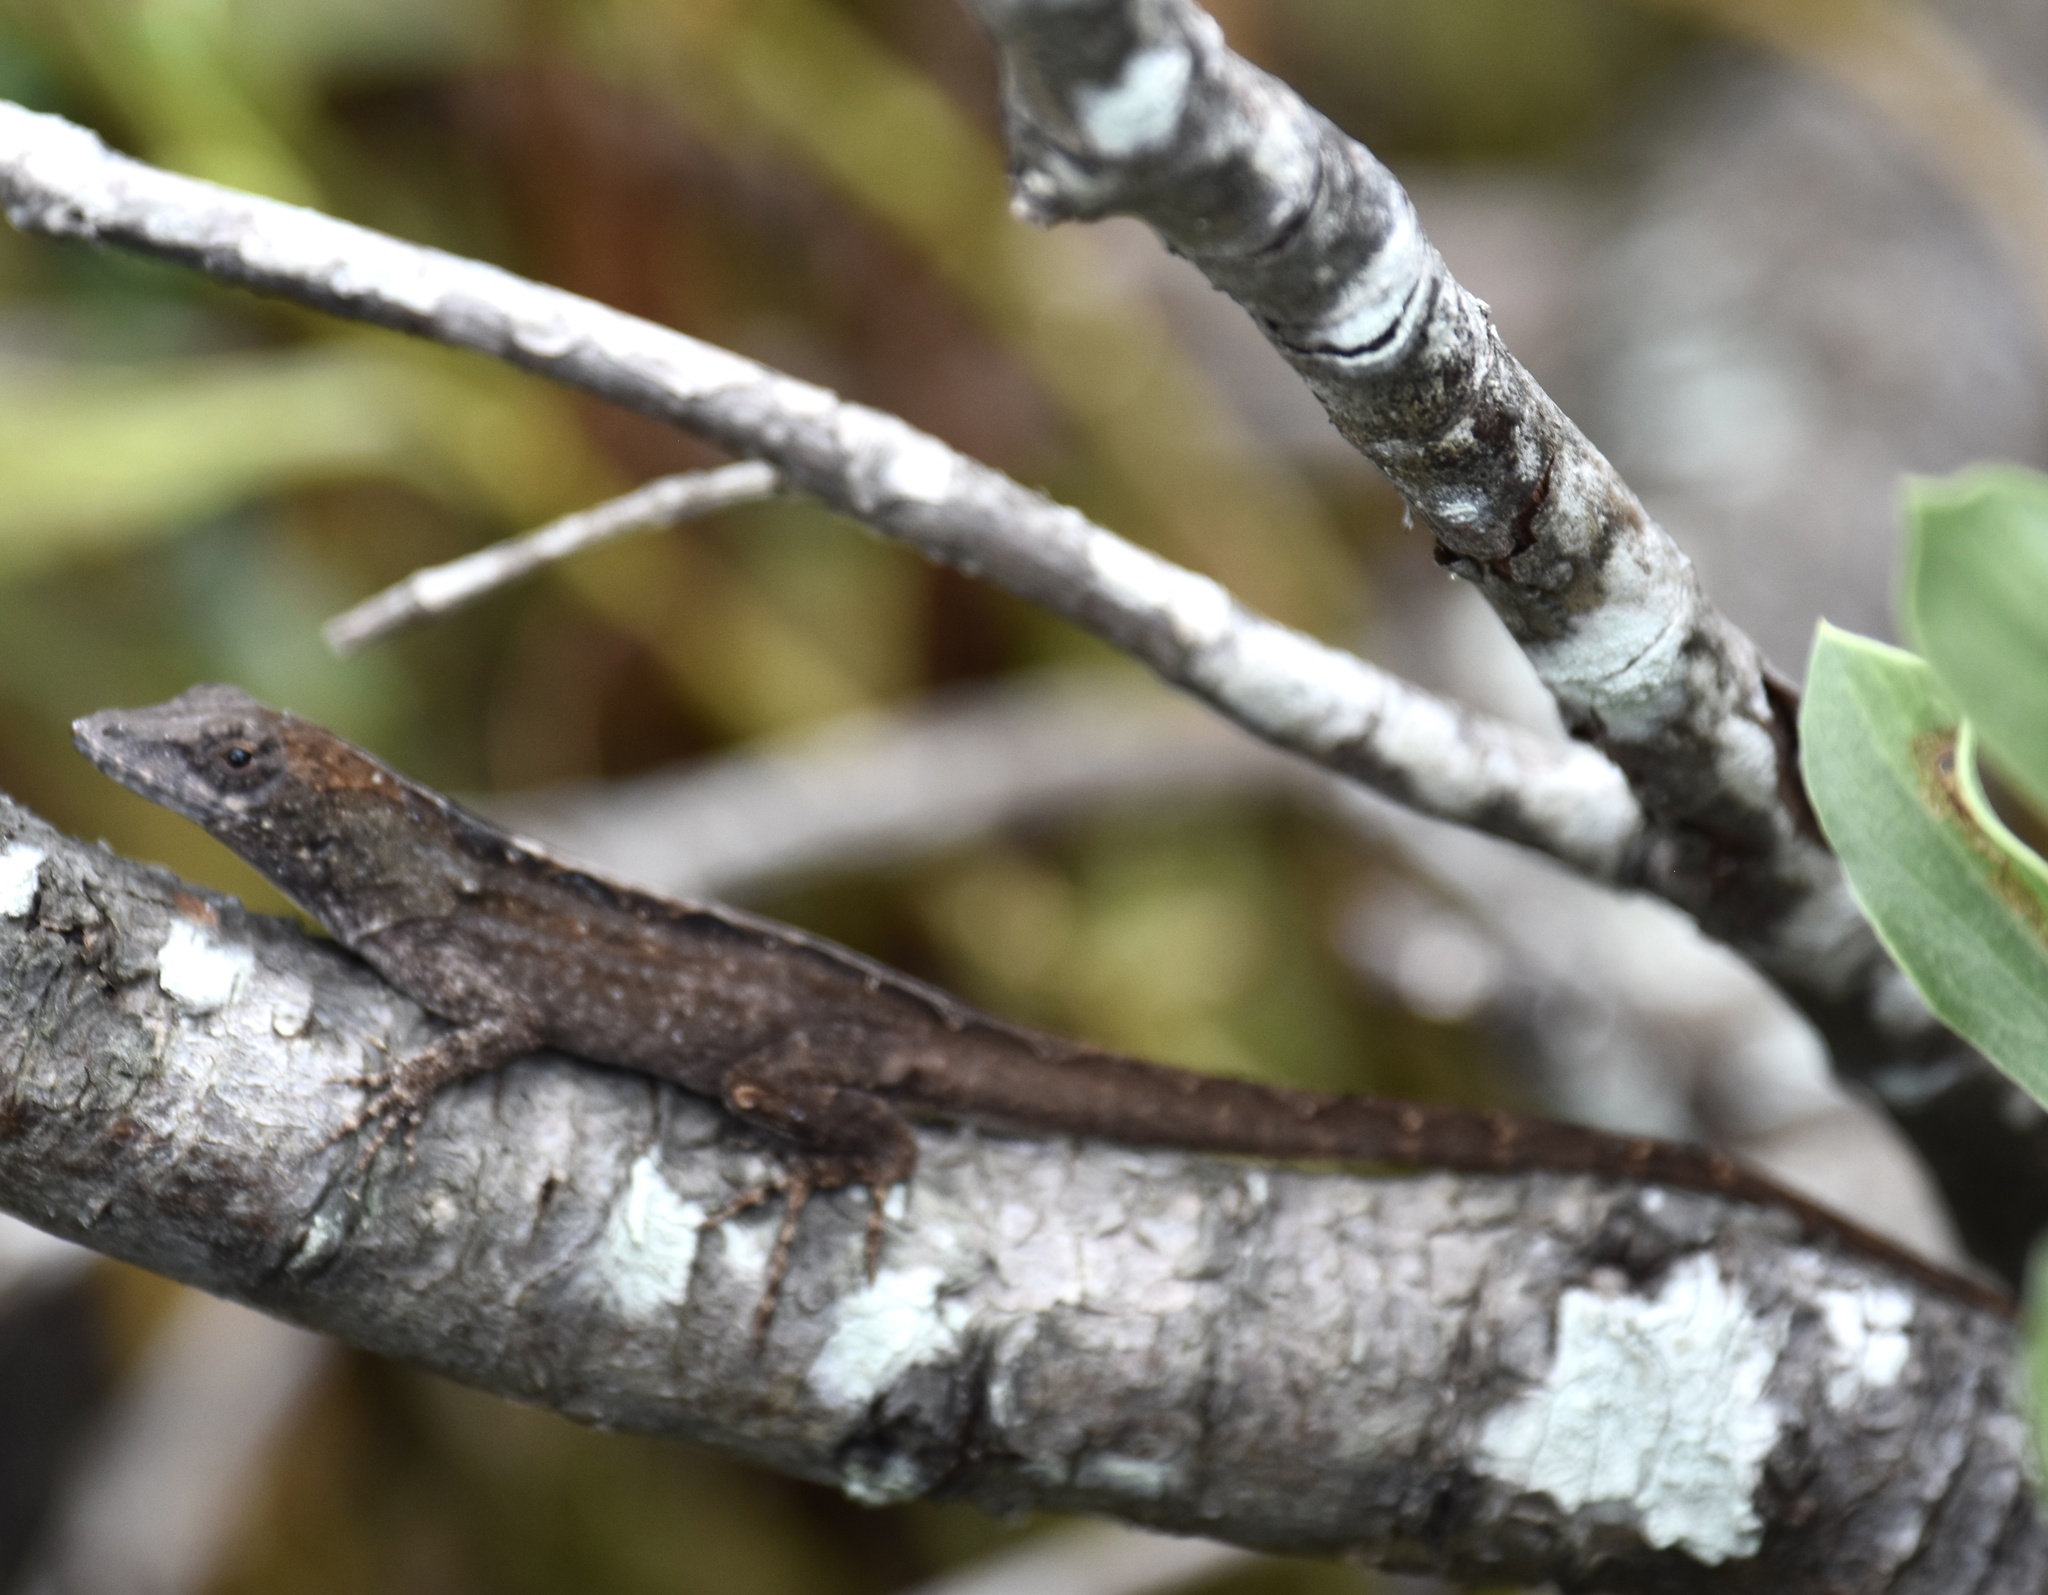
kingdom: Animalia
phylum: Chordata
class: Squamata
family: Dactyloidae
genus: Anolis
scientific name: Anolis sagrei
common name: Brown anole
